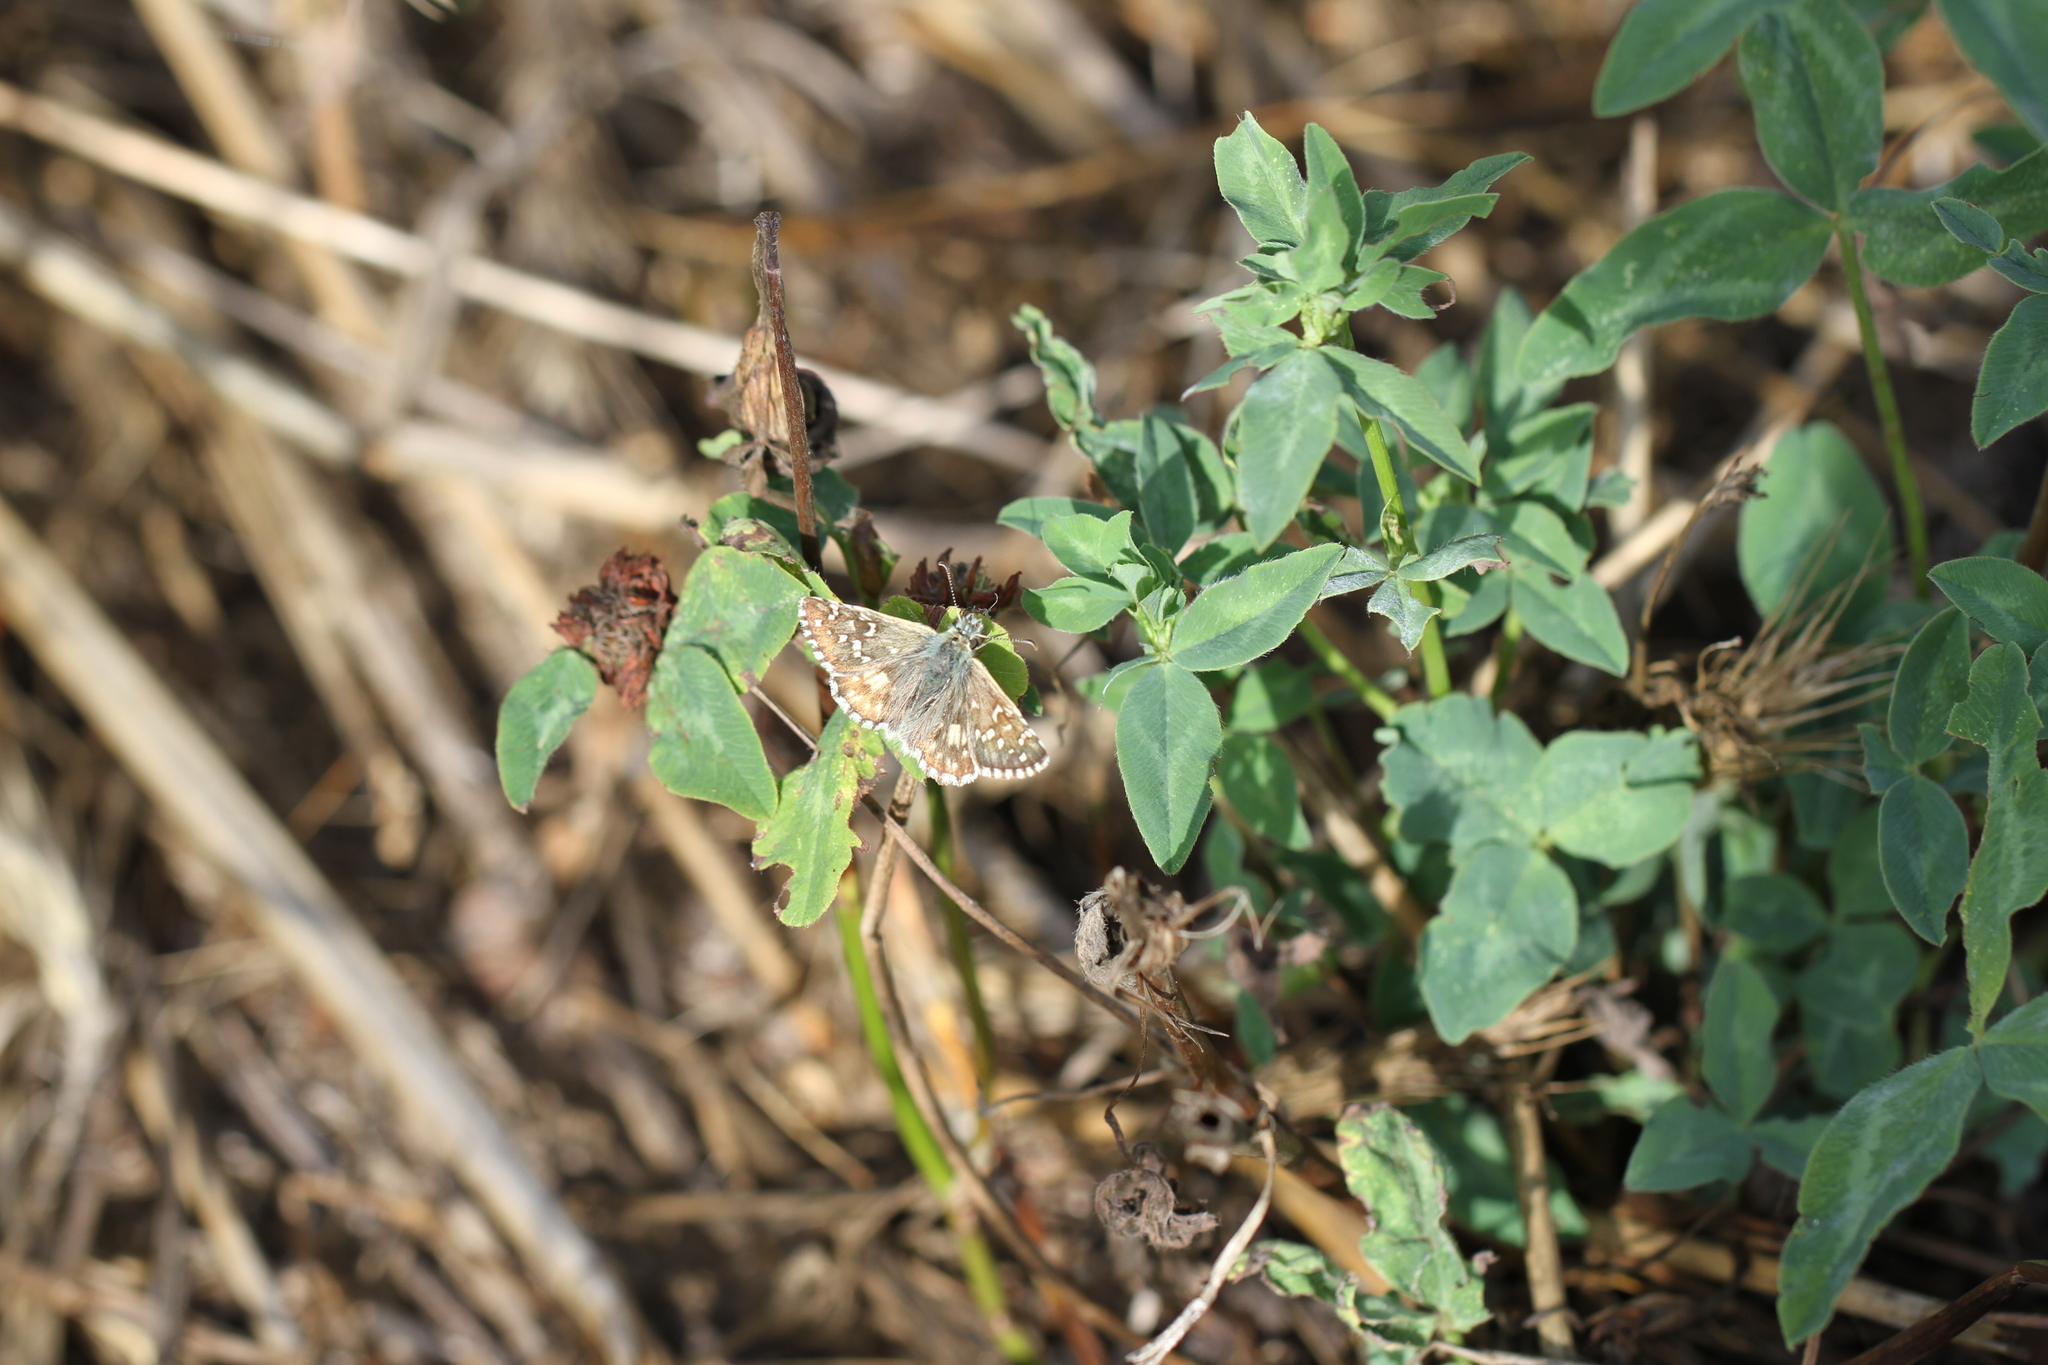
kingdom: Animalia
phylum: Arthropoda
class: Insecta
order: Lepidoptera
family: Hesperiidae
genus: Pyrgus
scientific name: Pyrgus armoricanus
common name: Oberthür's grizzled skipper
